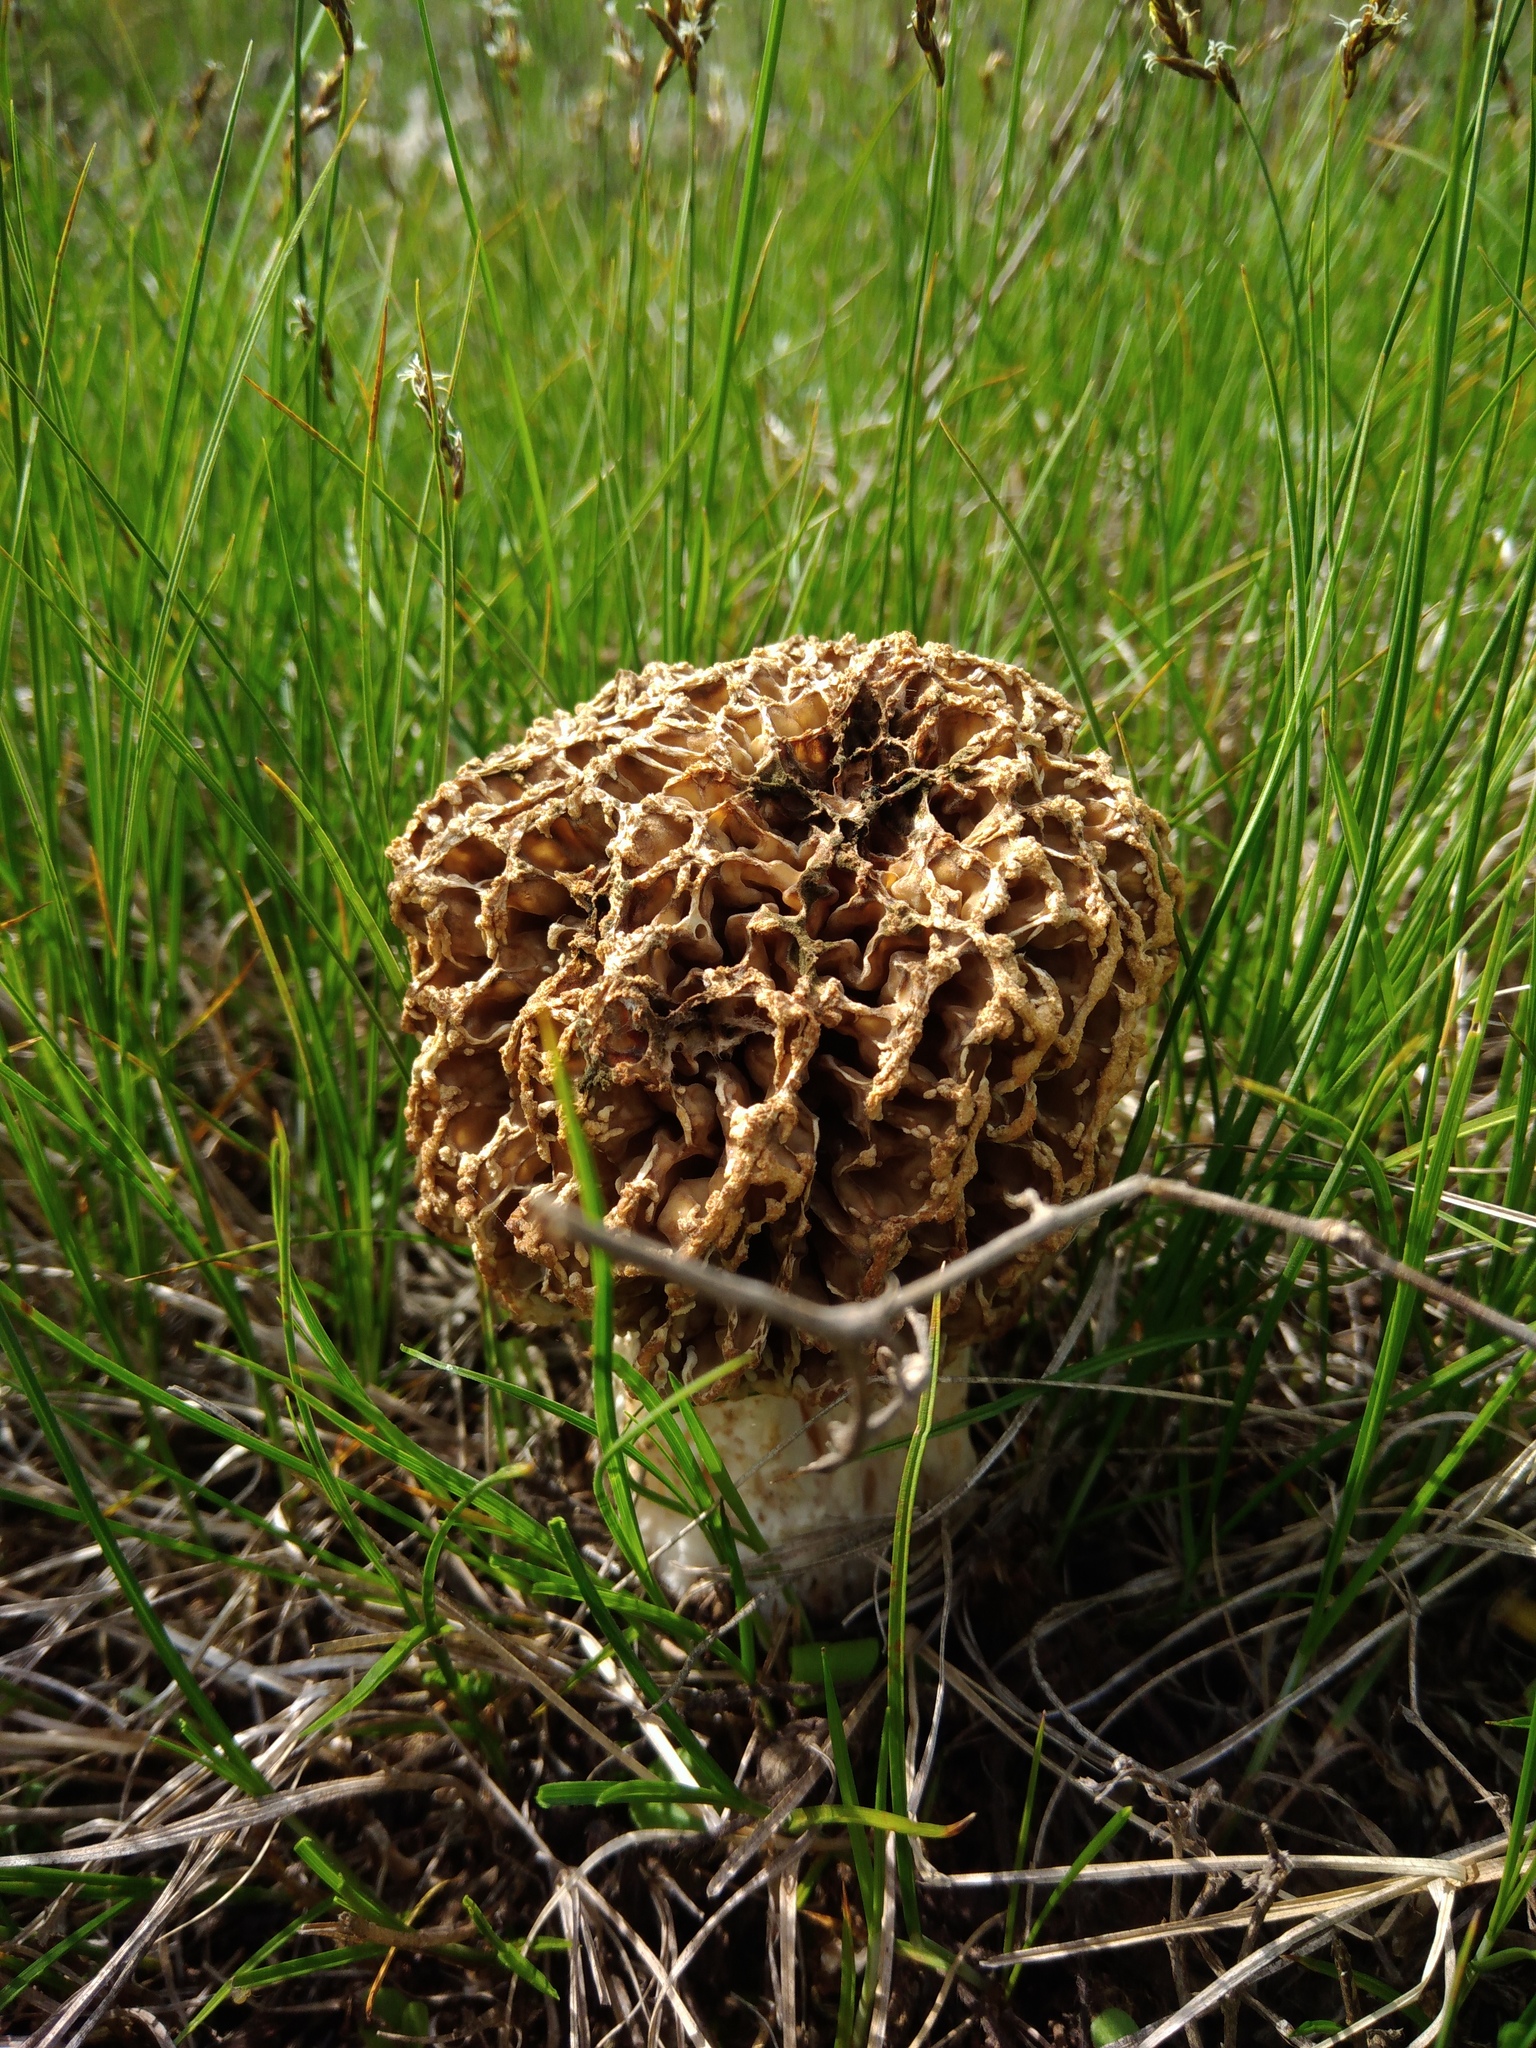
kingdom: Fungi
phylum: Ascomycota
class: Pezizomycetes
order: Pezizales
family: Morchellaceae
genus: Morchella
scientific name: Morchella steppicola
